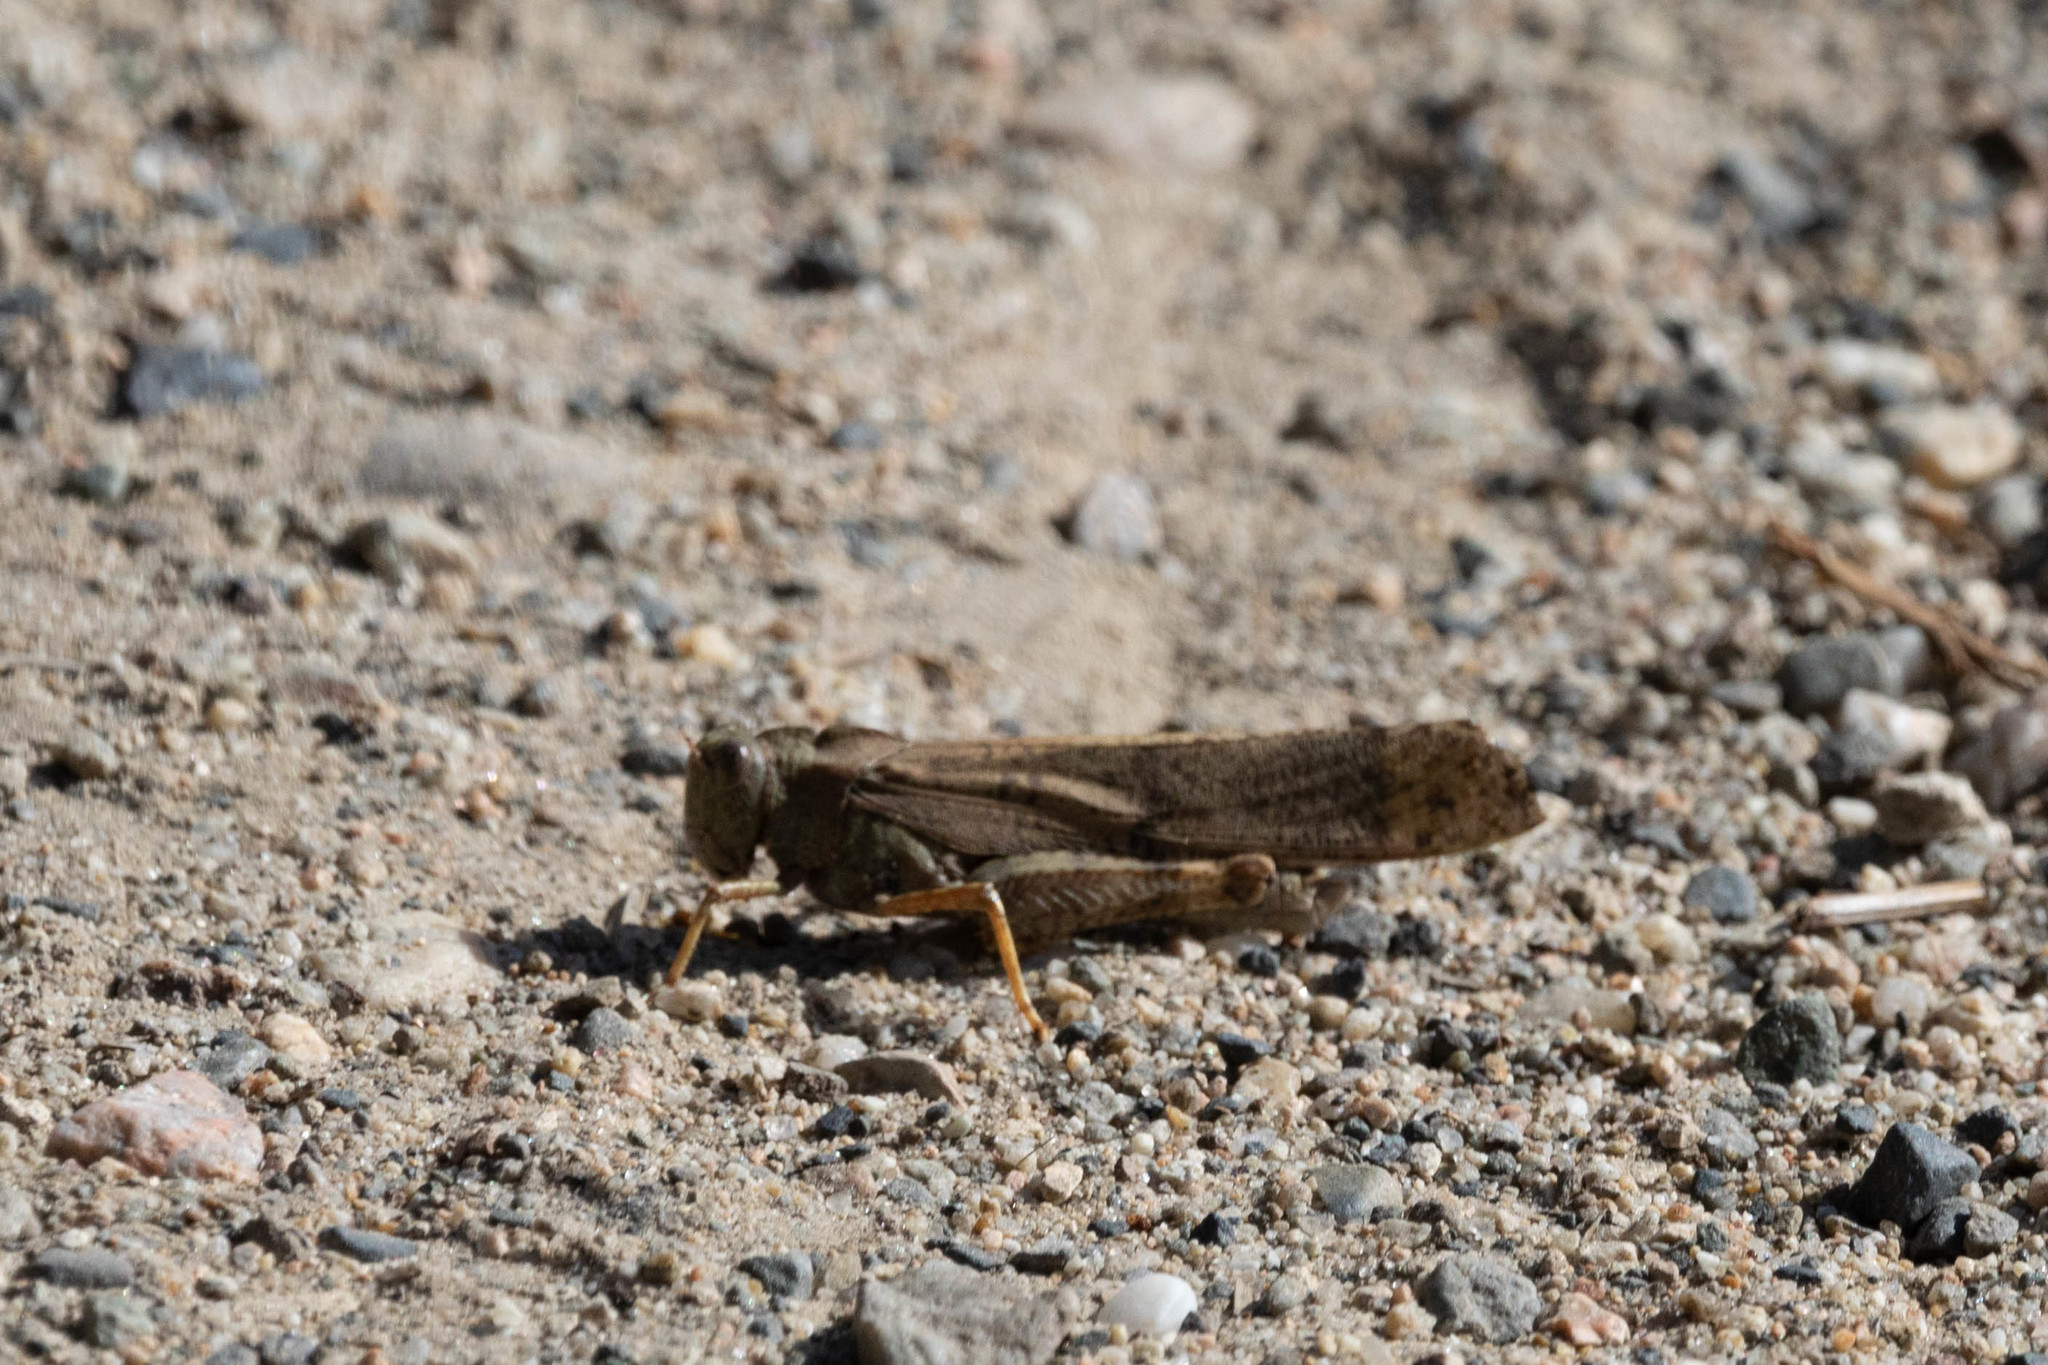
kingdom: Animalia
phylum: Arthropoda
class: Insecta
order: Orthoptera
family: Acrididae
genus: Dissosteira
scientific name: Dissosteira carolina
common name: Carolina grasshopper
